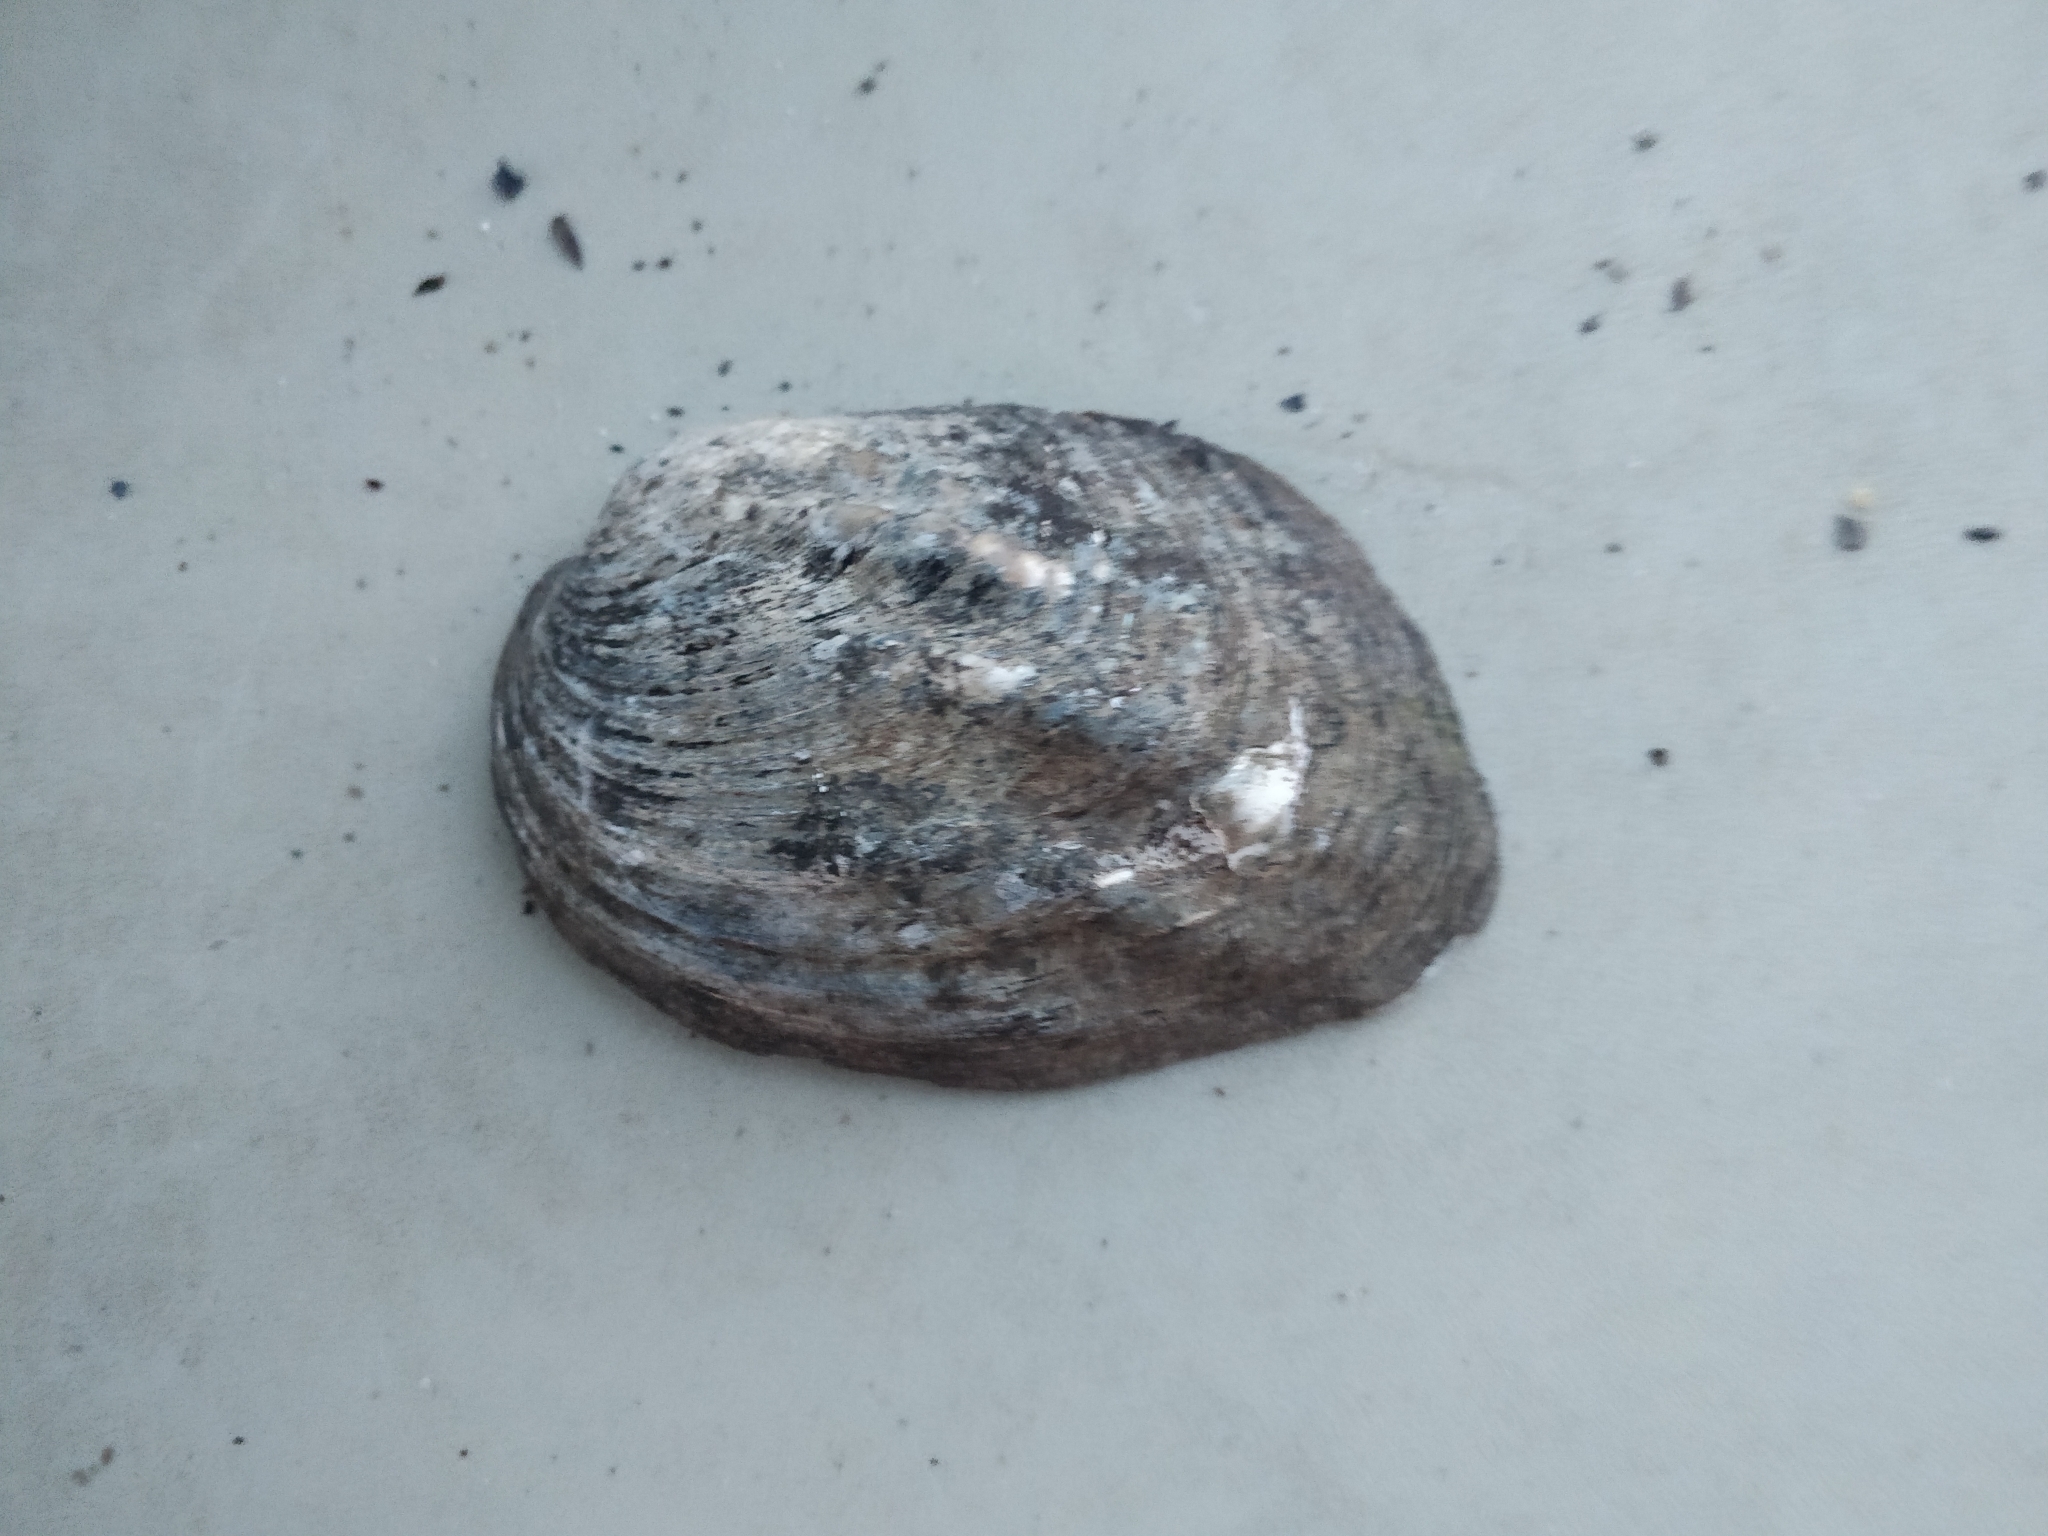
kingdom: Animalia
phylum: Mollusca
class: Bivalvia
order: Unionida
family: Unionidae
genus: Amblema
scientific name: Amblema plicata
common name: Threeridge
